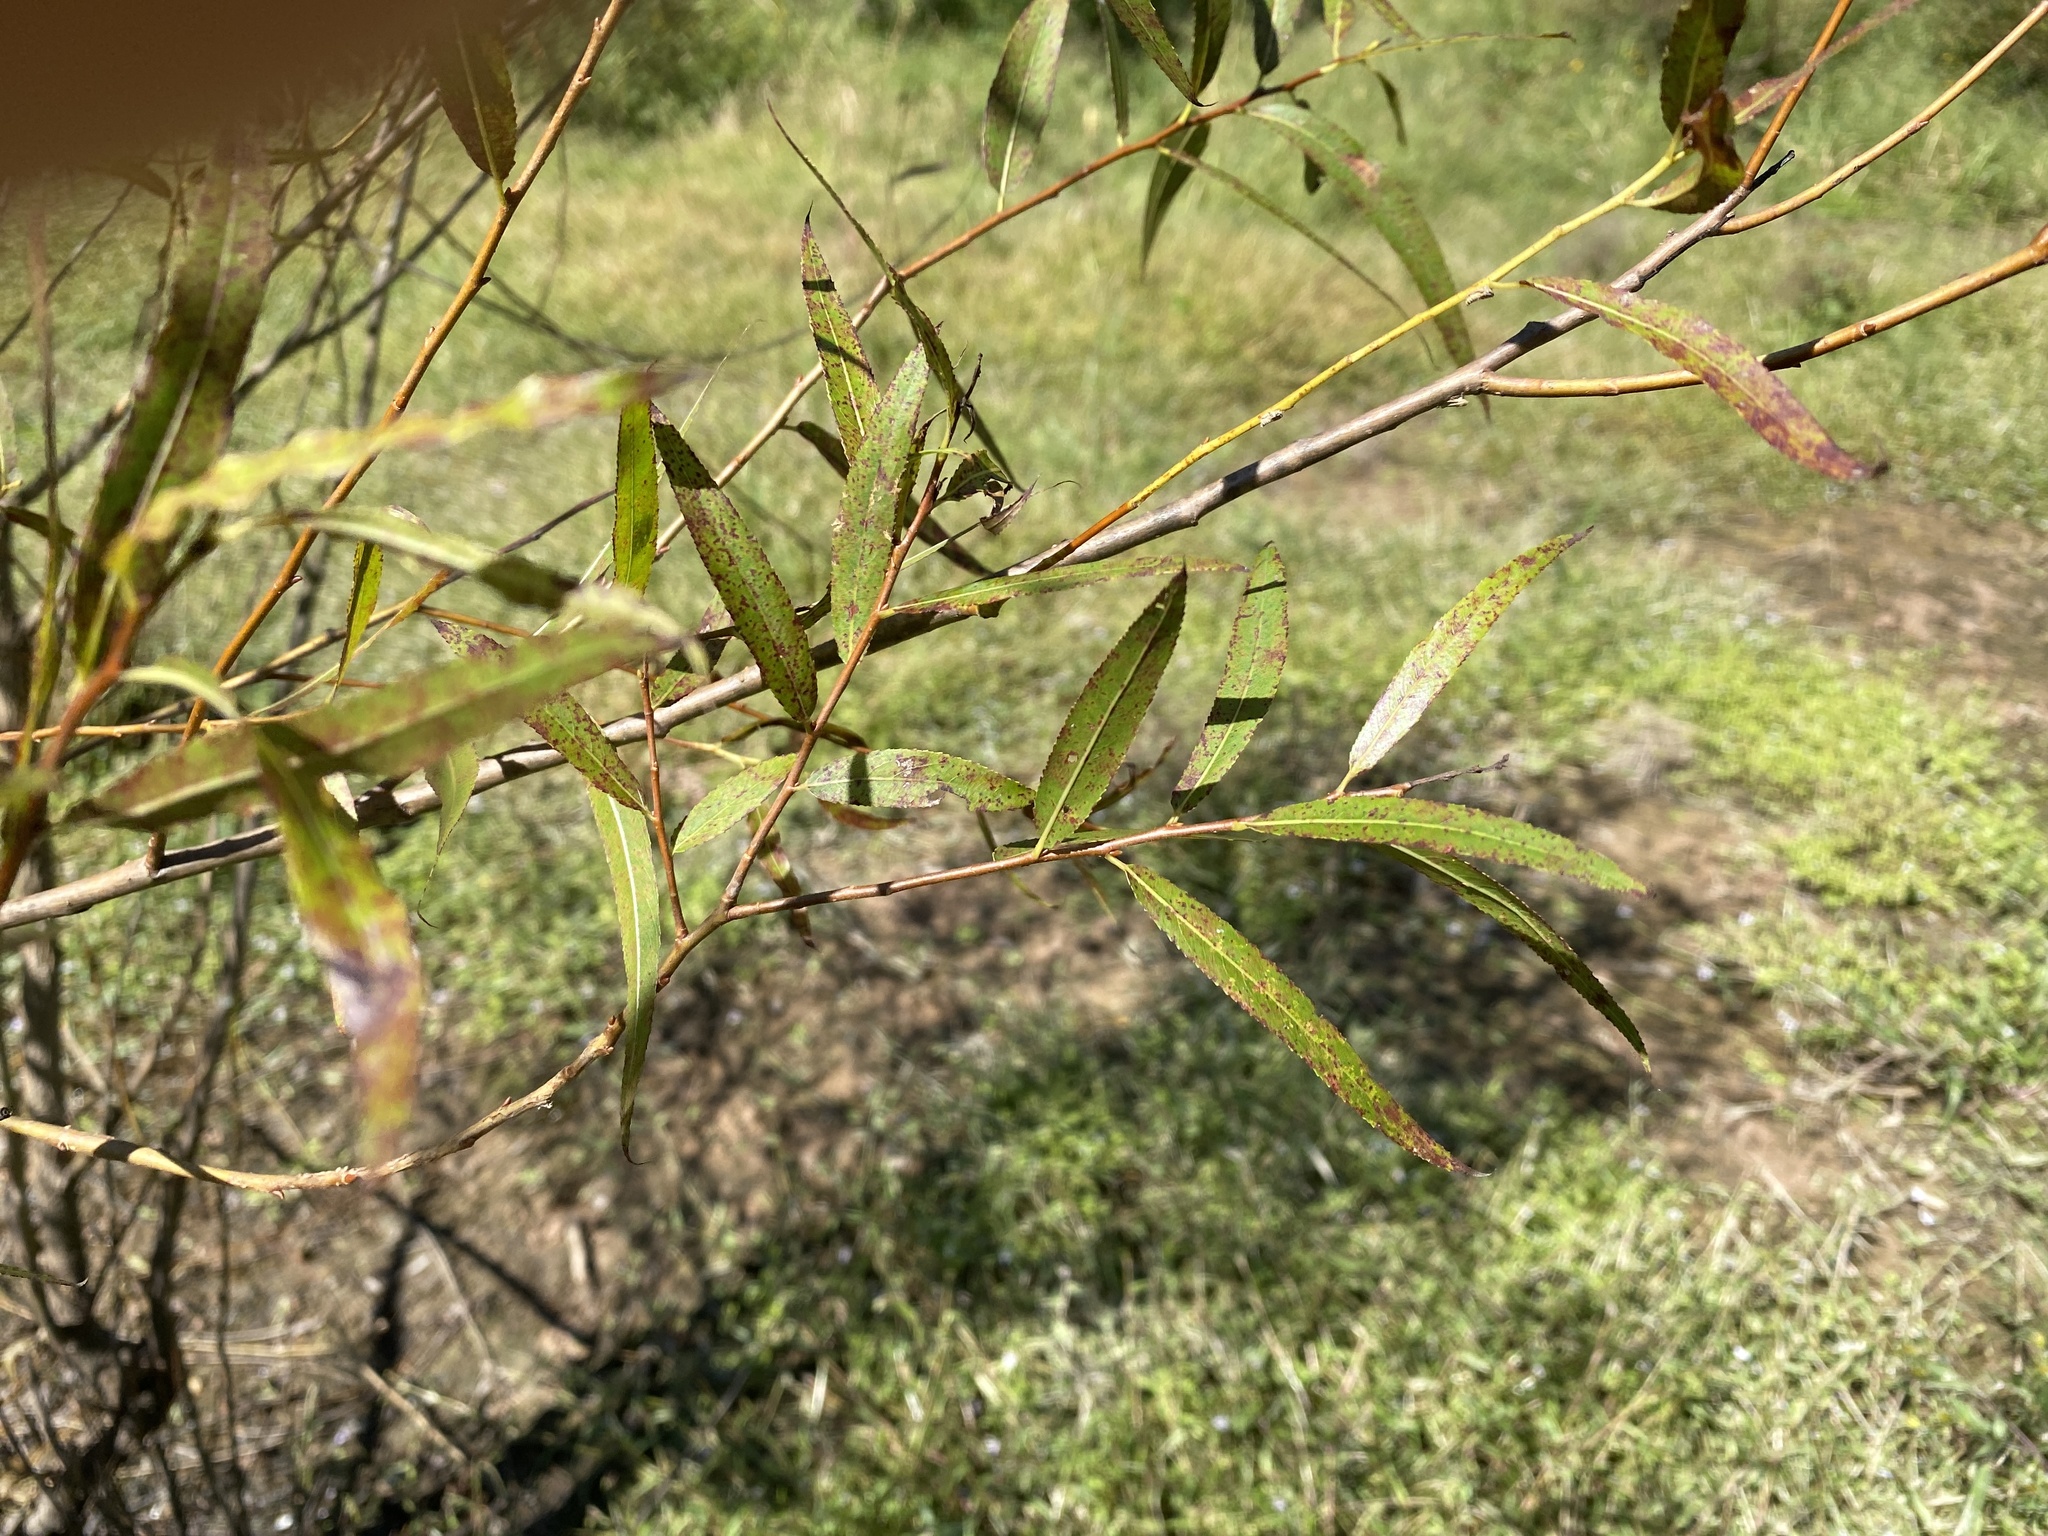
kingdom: Plantae
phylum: Tracheophyta
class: Magnoliopsida
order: Malpighiales
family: Salicaceae
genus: Salix
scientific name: Salix nigra
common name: Black willow
